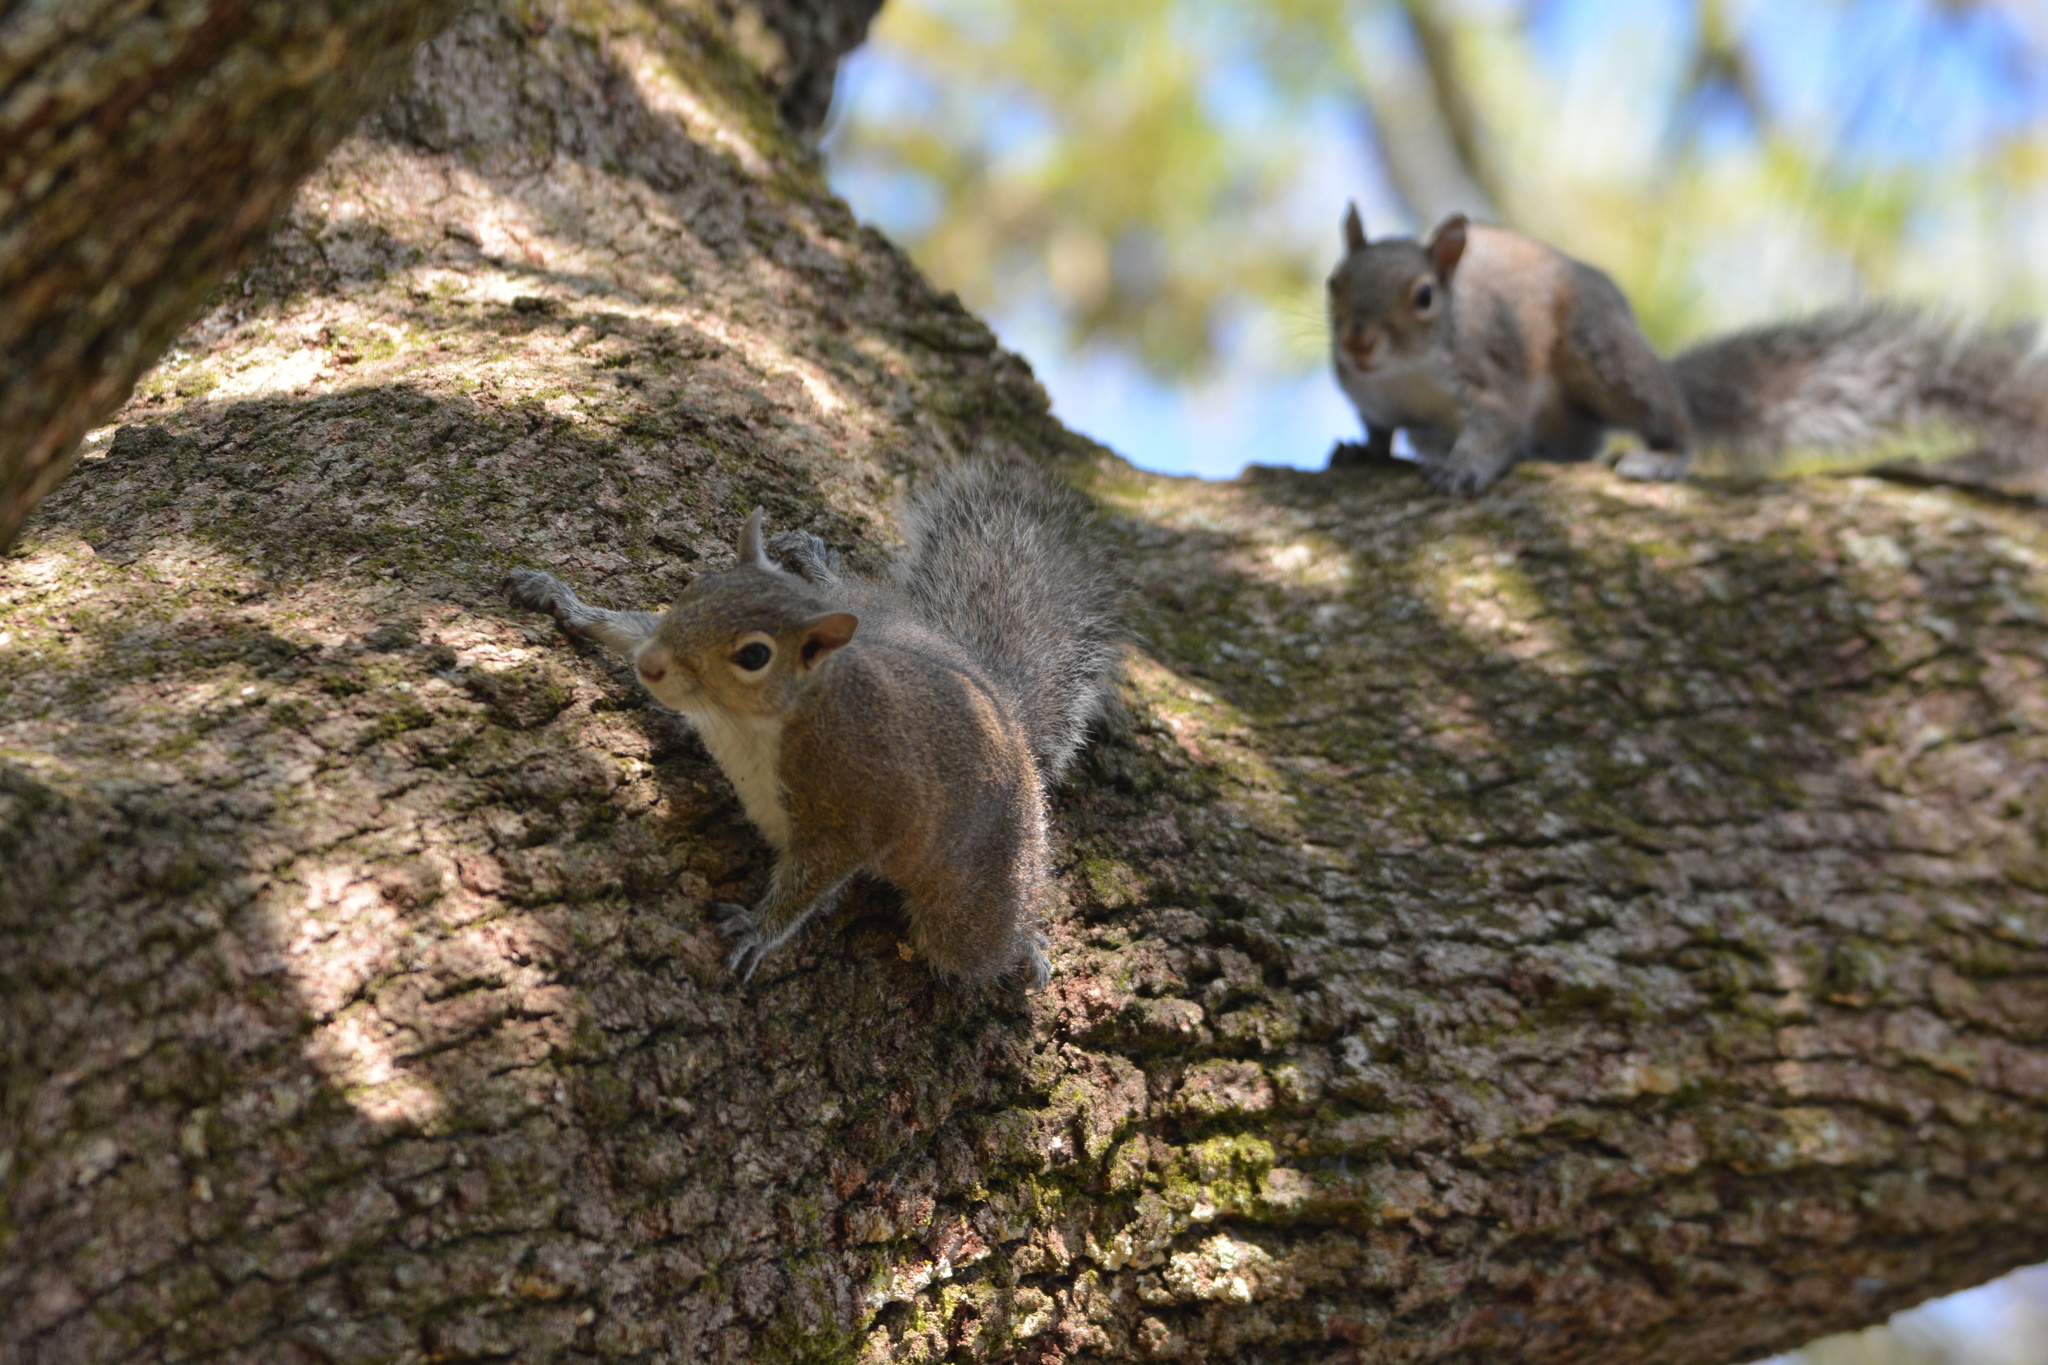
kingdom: Animalia
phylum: Chordata
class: Mammalia
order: Rodentia
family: Sciuridae
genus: Sciurus
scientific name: Sciurus carolinensis
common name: Eastern gray squirrel
